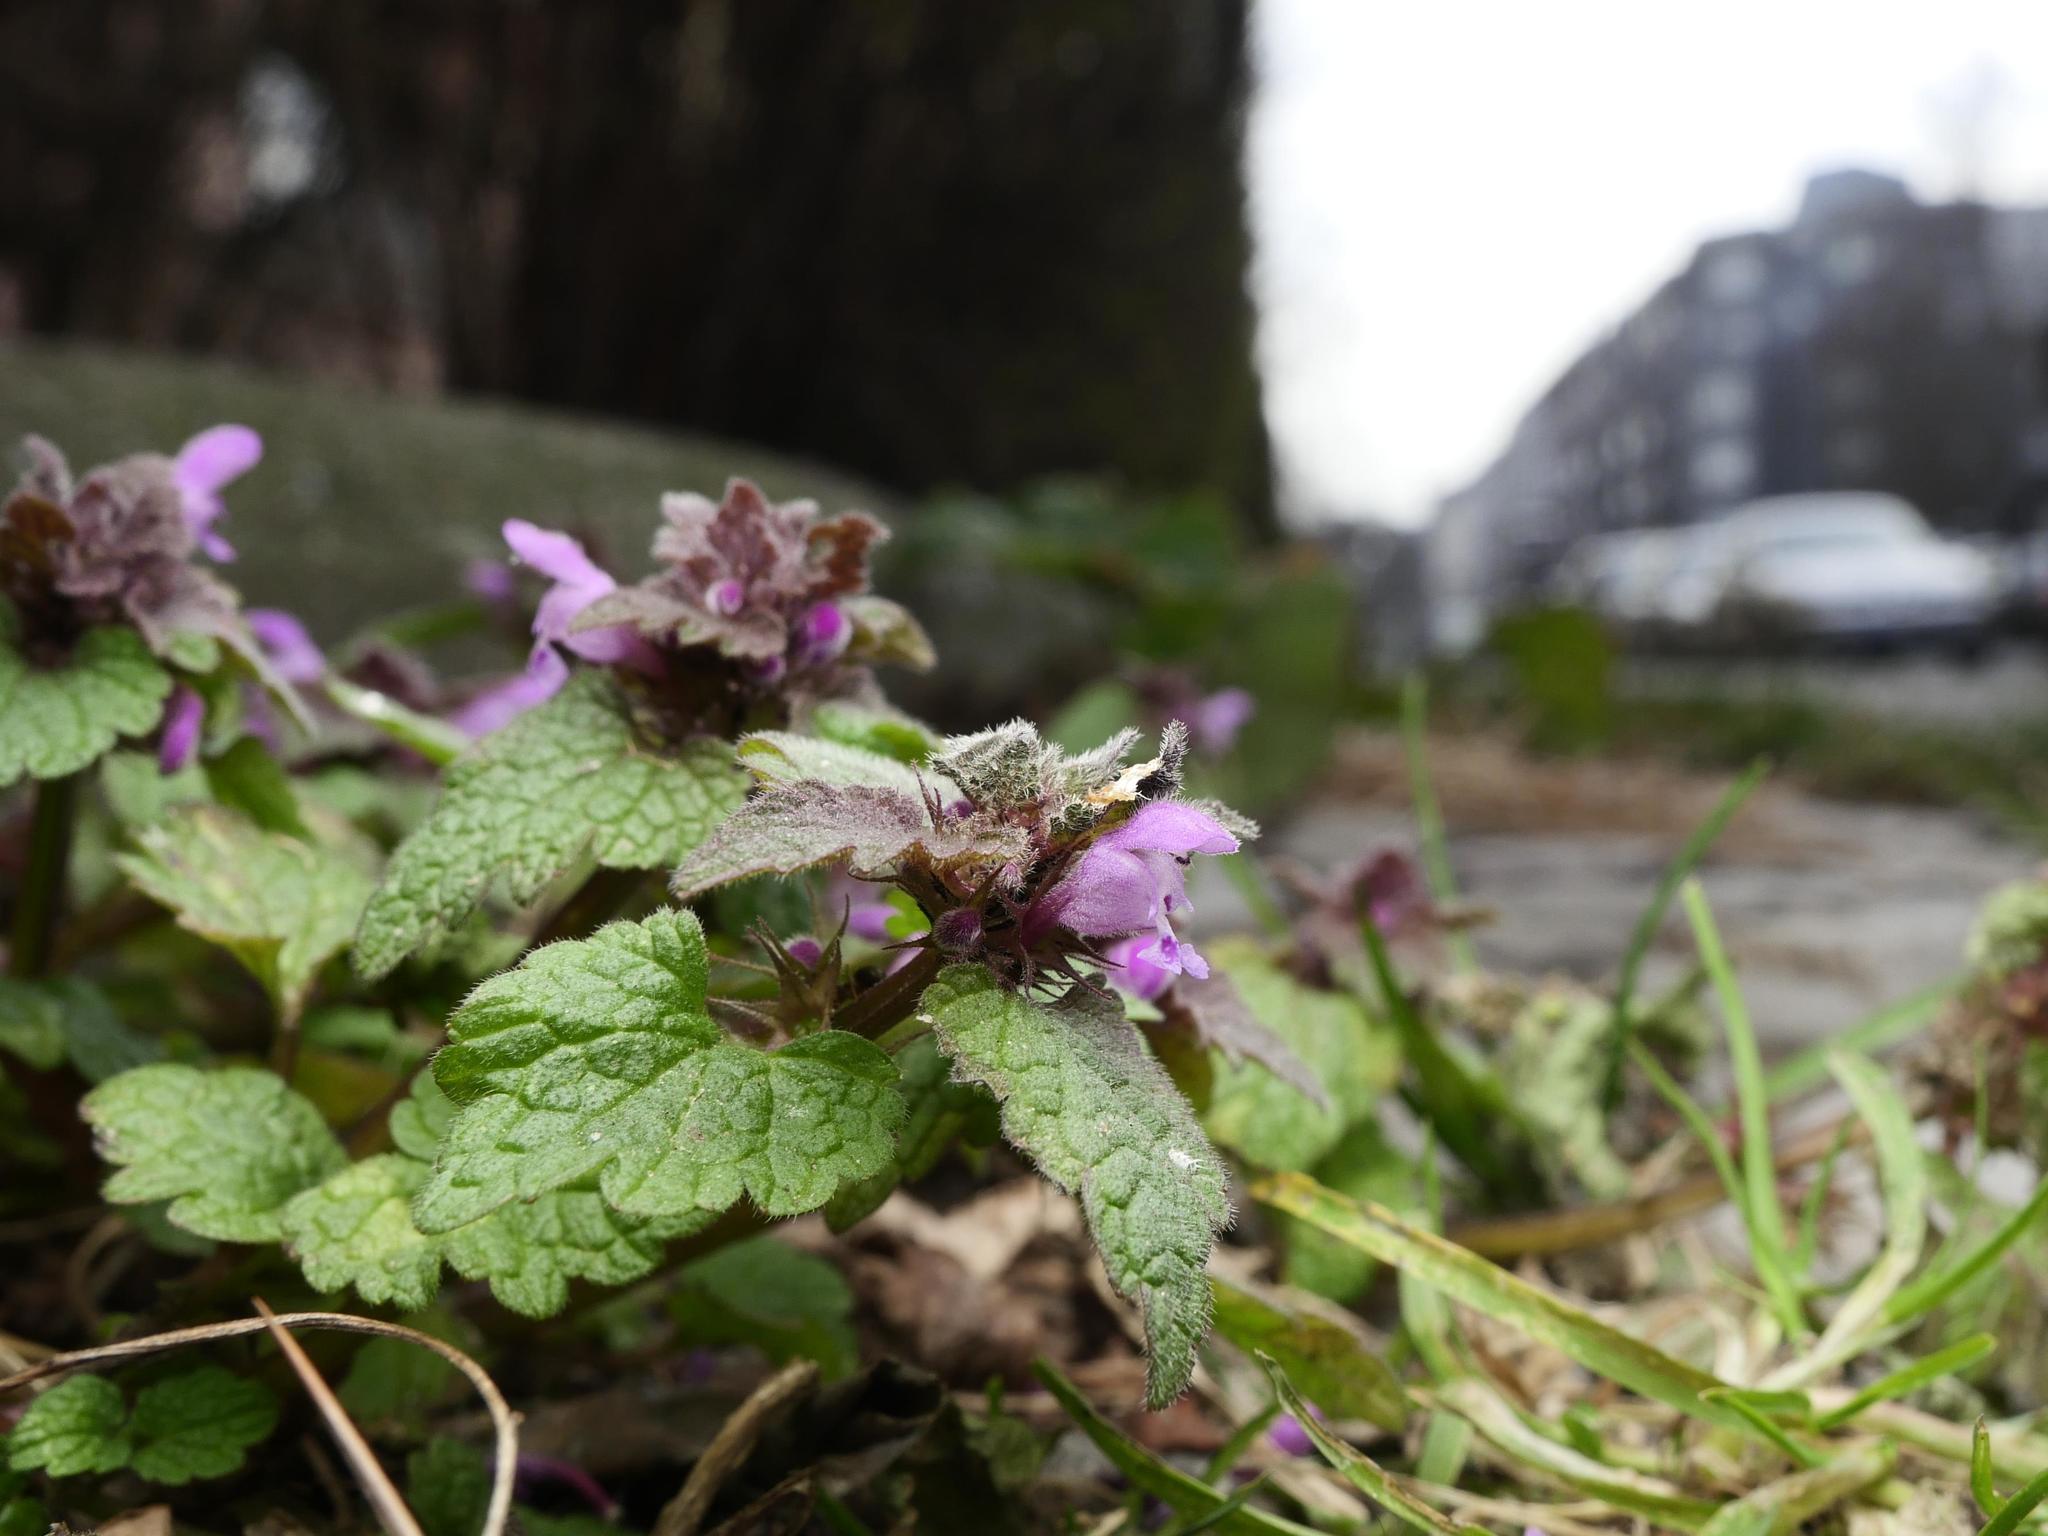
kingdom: Plantae
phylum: Tracheophyta
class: Magnoliopsida
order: Lamiales
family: Lamiaceae
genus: Lamium
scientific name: Lamium purpureum
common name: Red dead-nettle
